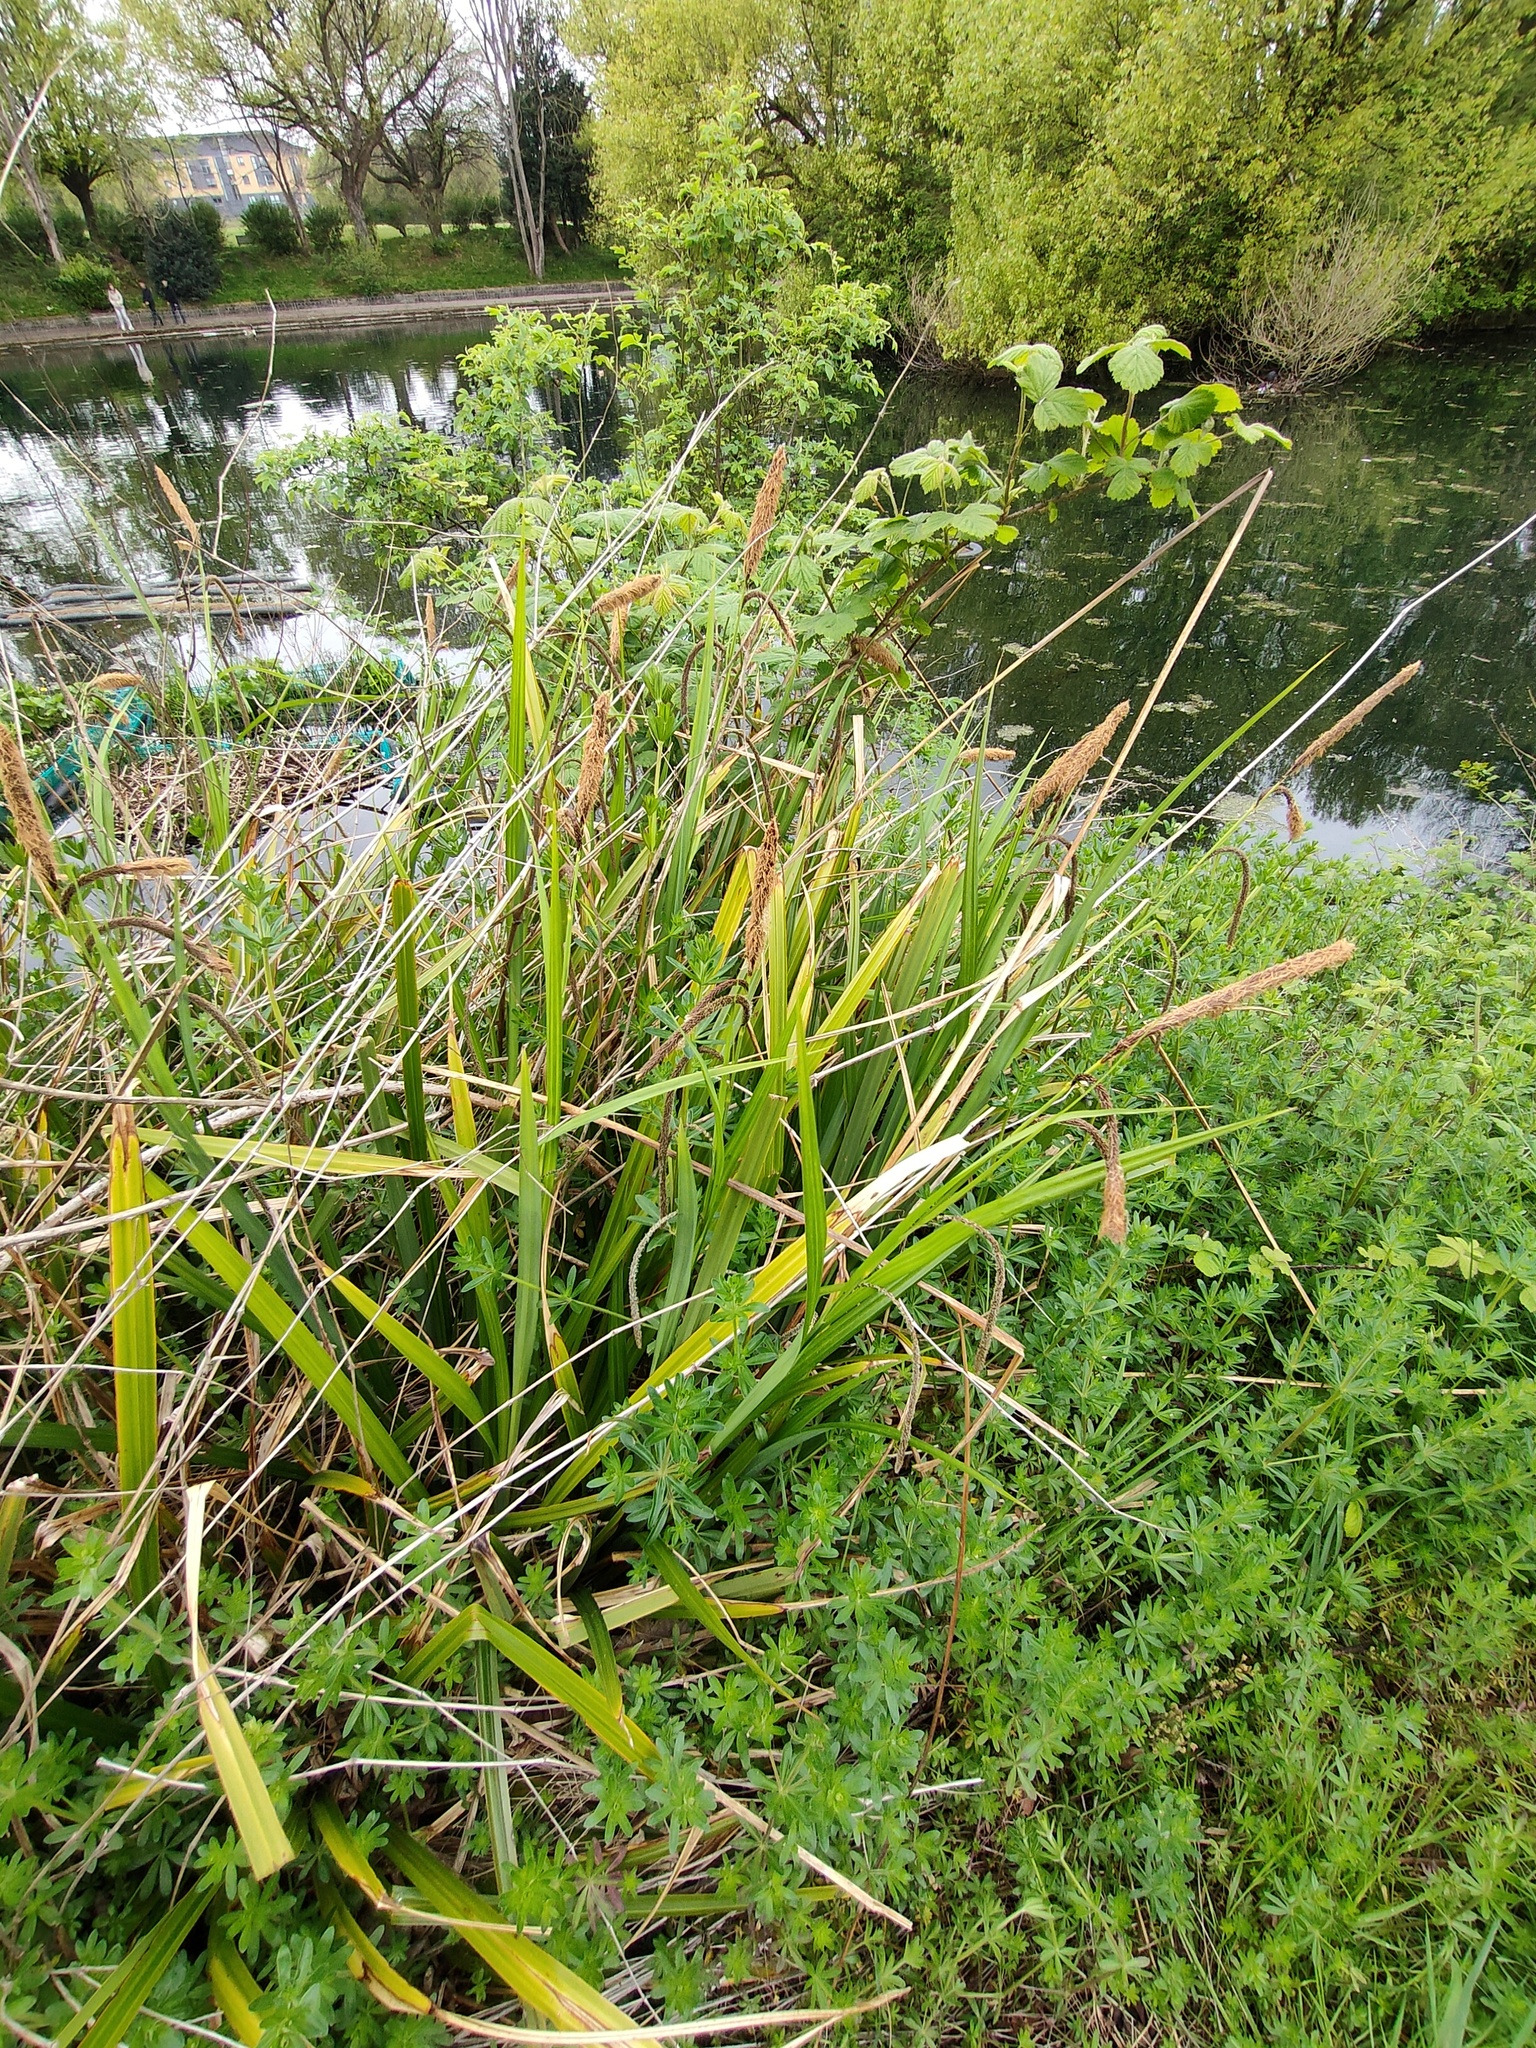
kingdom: Plantae
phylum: Tracheophyta
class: Liliopsida
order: Poales
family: Cyperaceae
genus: Carex
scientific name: Carex pendula
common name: Pendulous sedge
